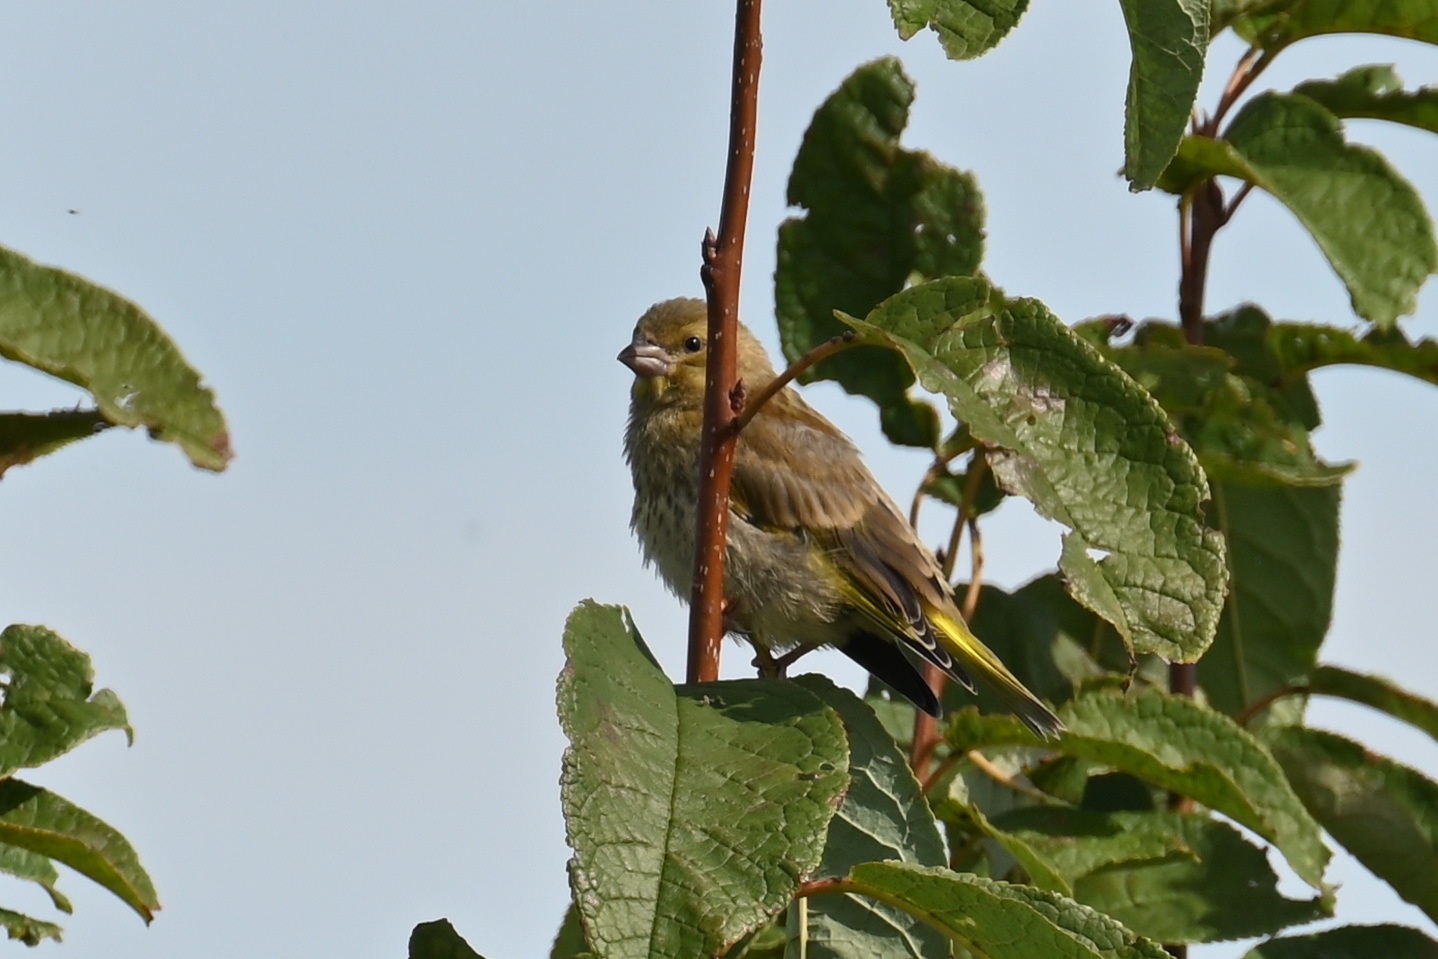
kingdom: Plantae
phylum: Tracheophyta
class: Liliopsida
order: Poales
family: Poaceae
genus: Chloris
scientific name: Chloris chloris
